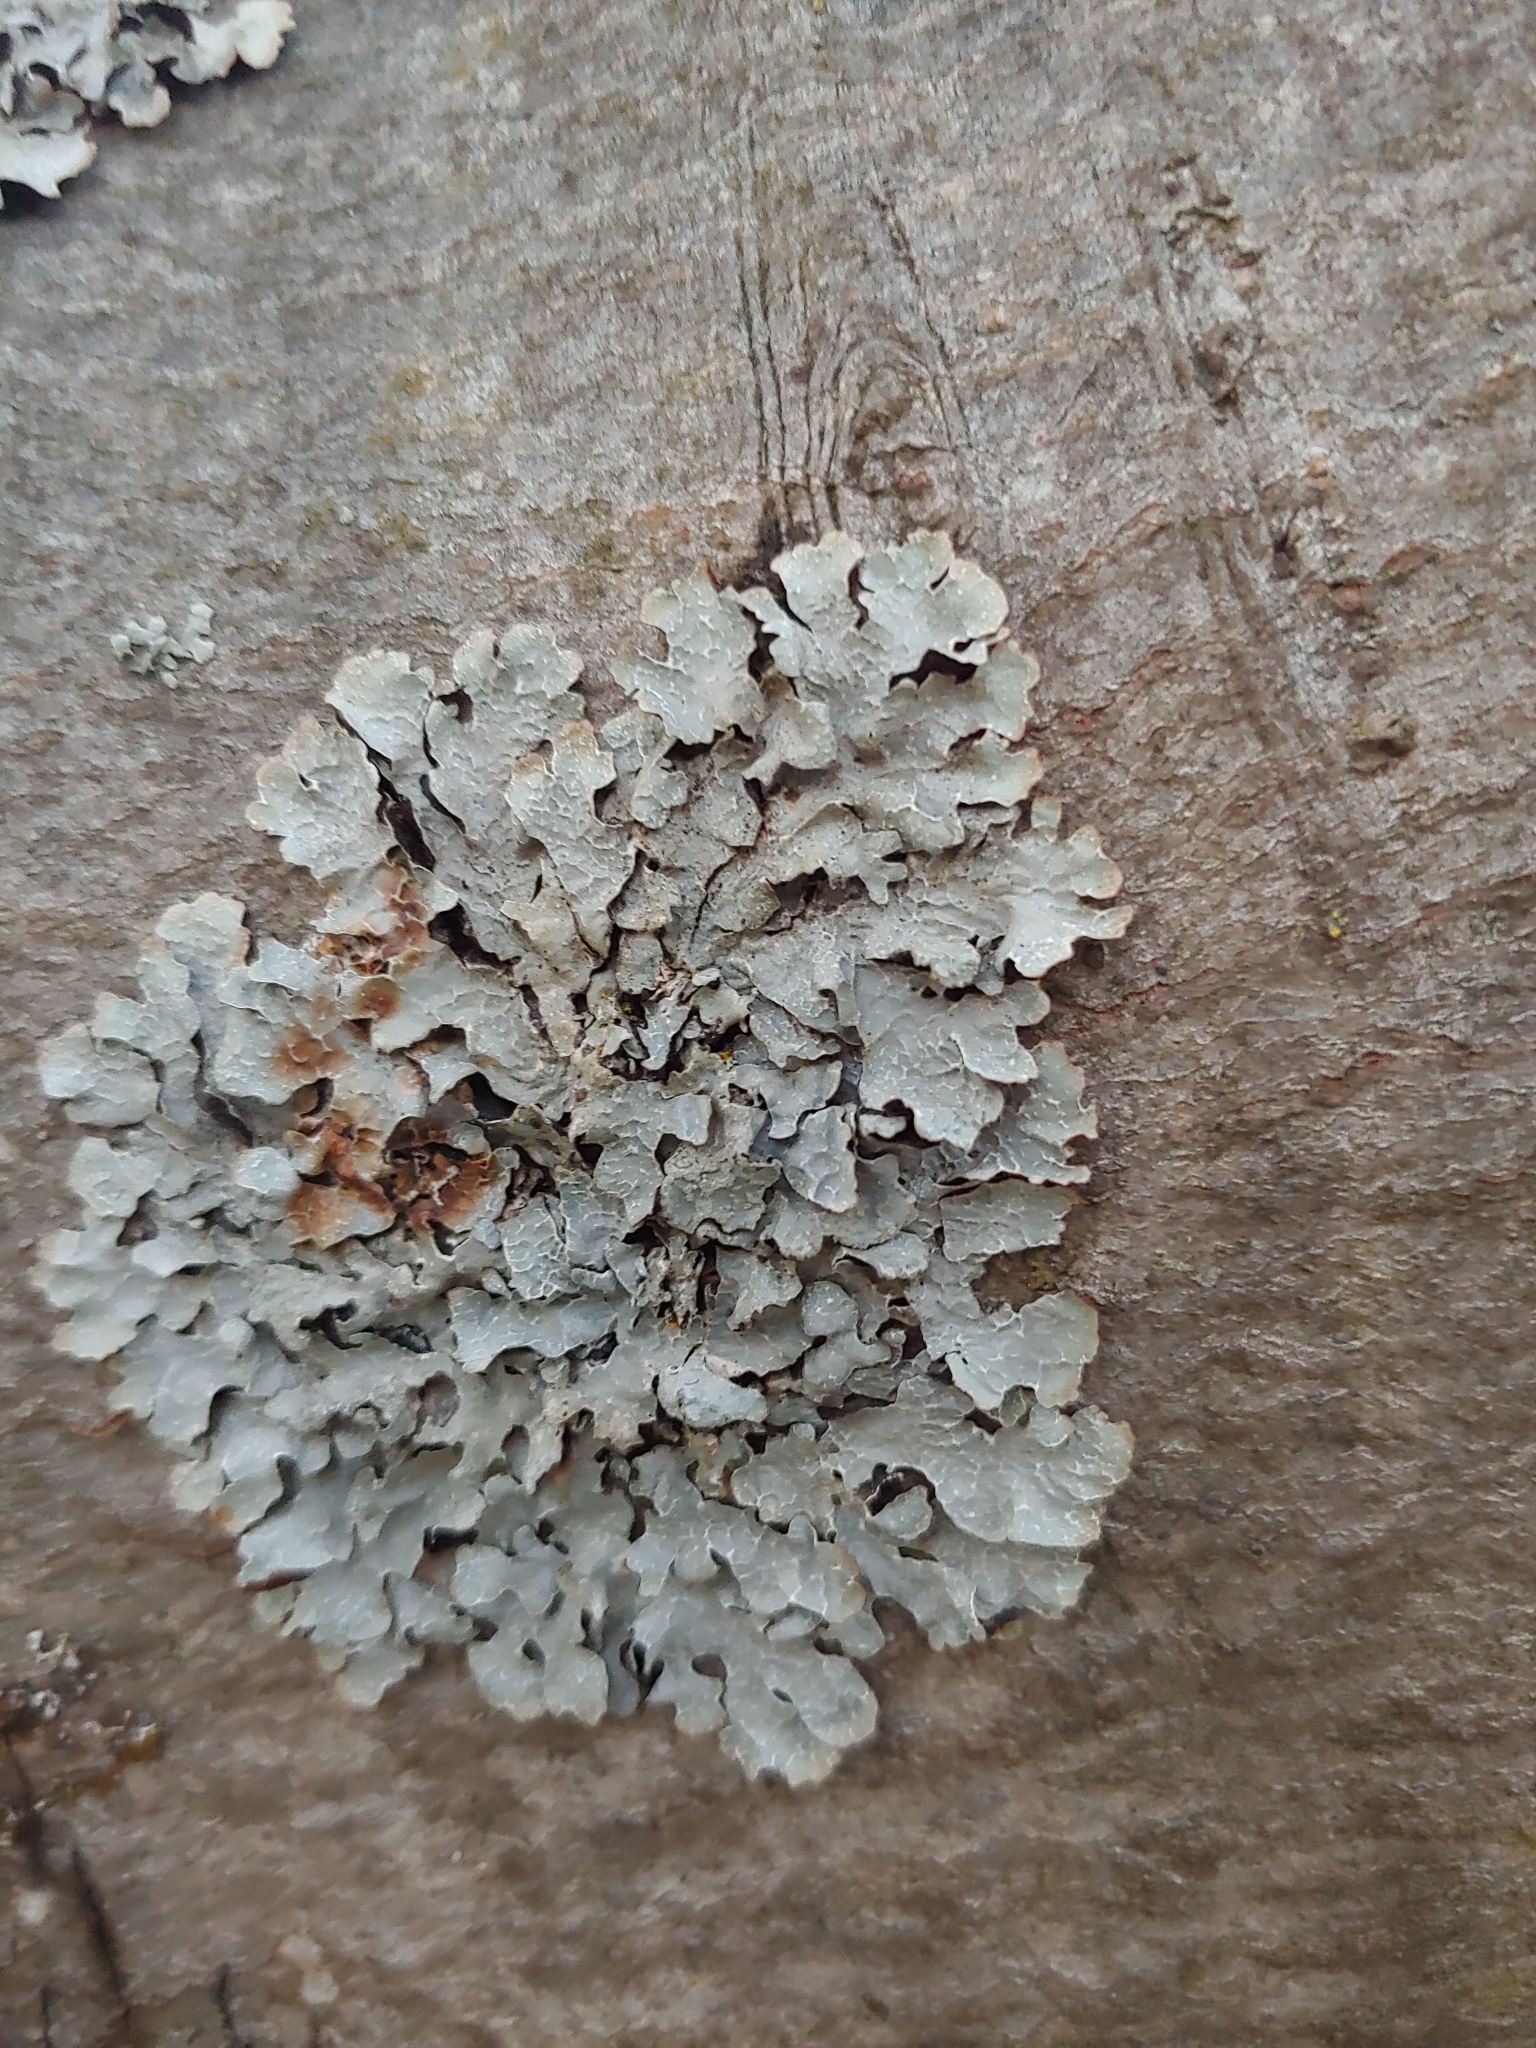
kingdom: Fungi
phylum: Ascomycota
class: Lecanoromycetes
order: Lecanorales
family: Parmeliaceae
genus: Parmelia
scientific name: Parmelia sulcata
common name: Netted shield lichen
